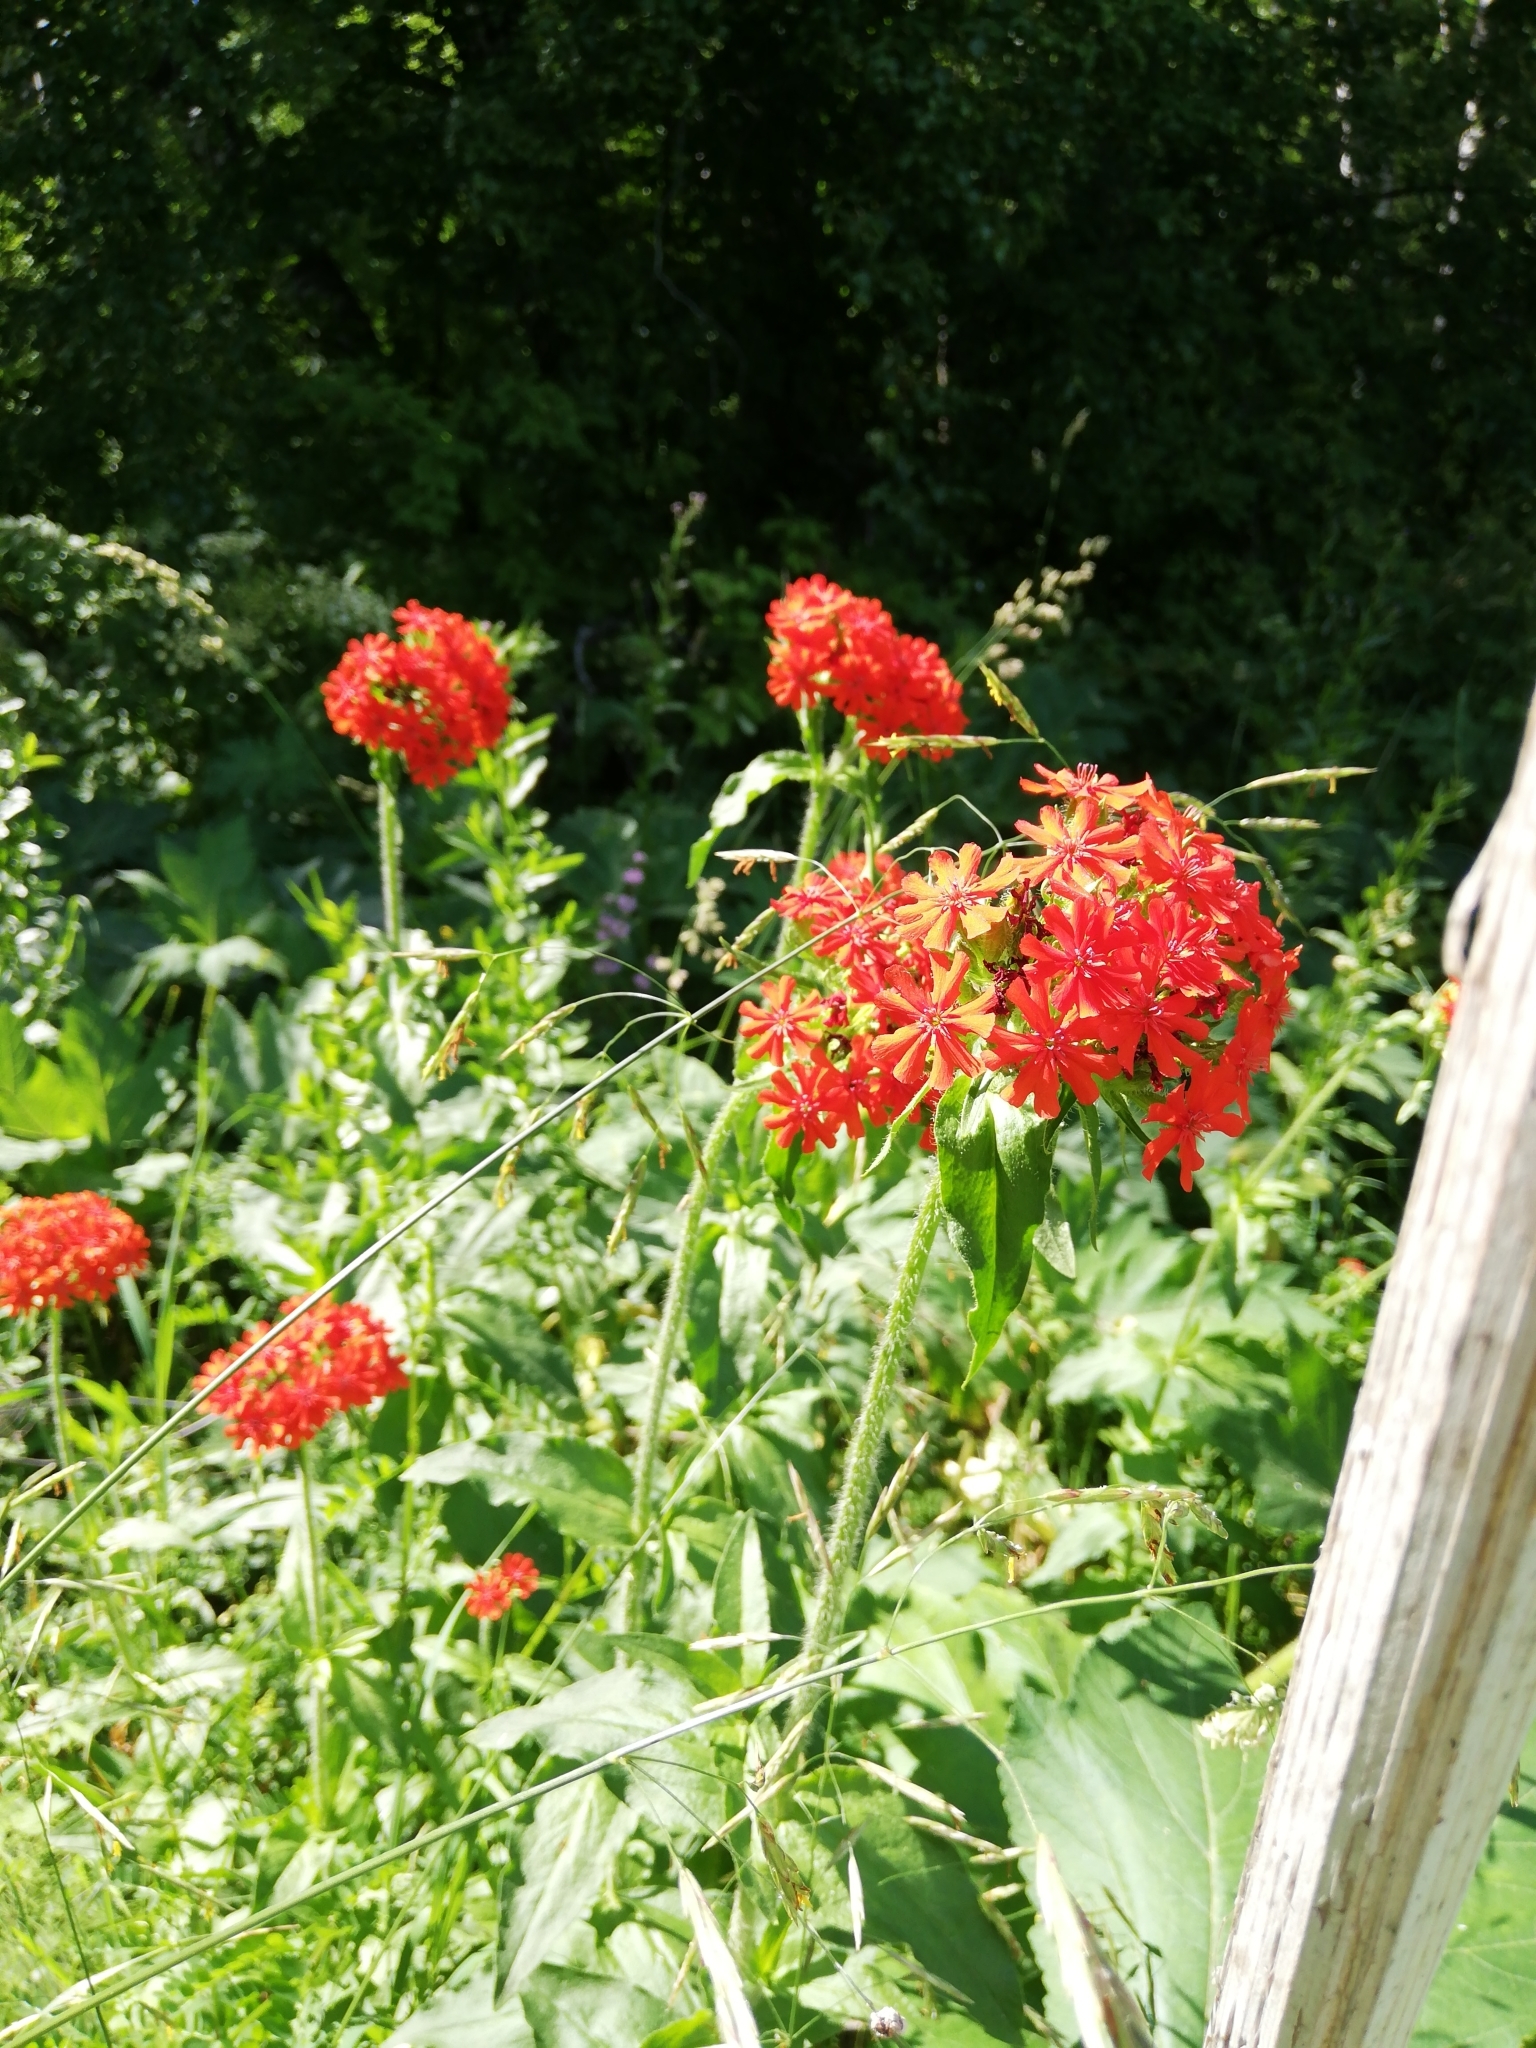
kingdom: Plantae
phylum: Tracheophyta
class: Magnoliopsida
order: Caryophyllales
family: Caryophyllaceae
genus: Silene
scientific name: Silene chalcedonica
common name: Maltese-cross
